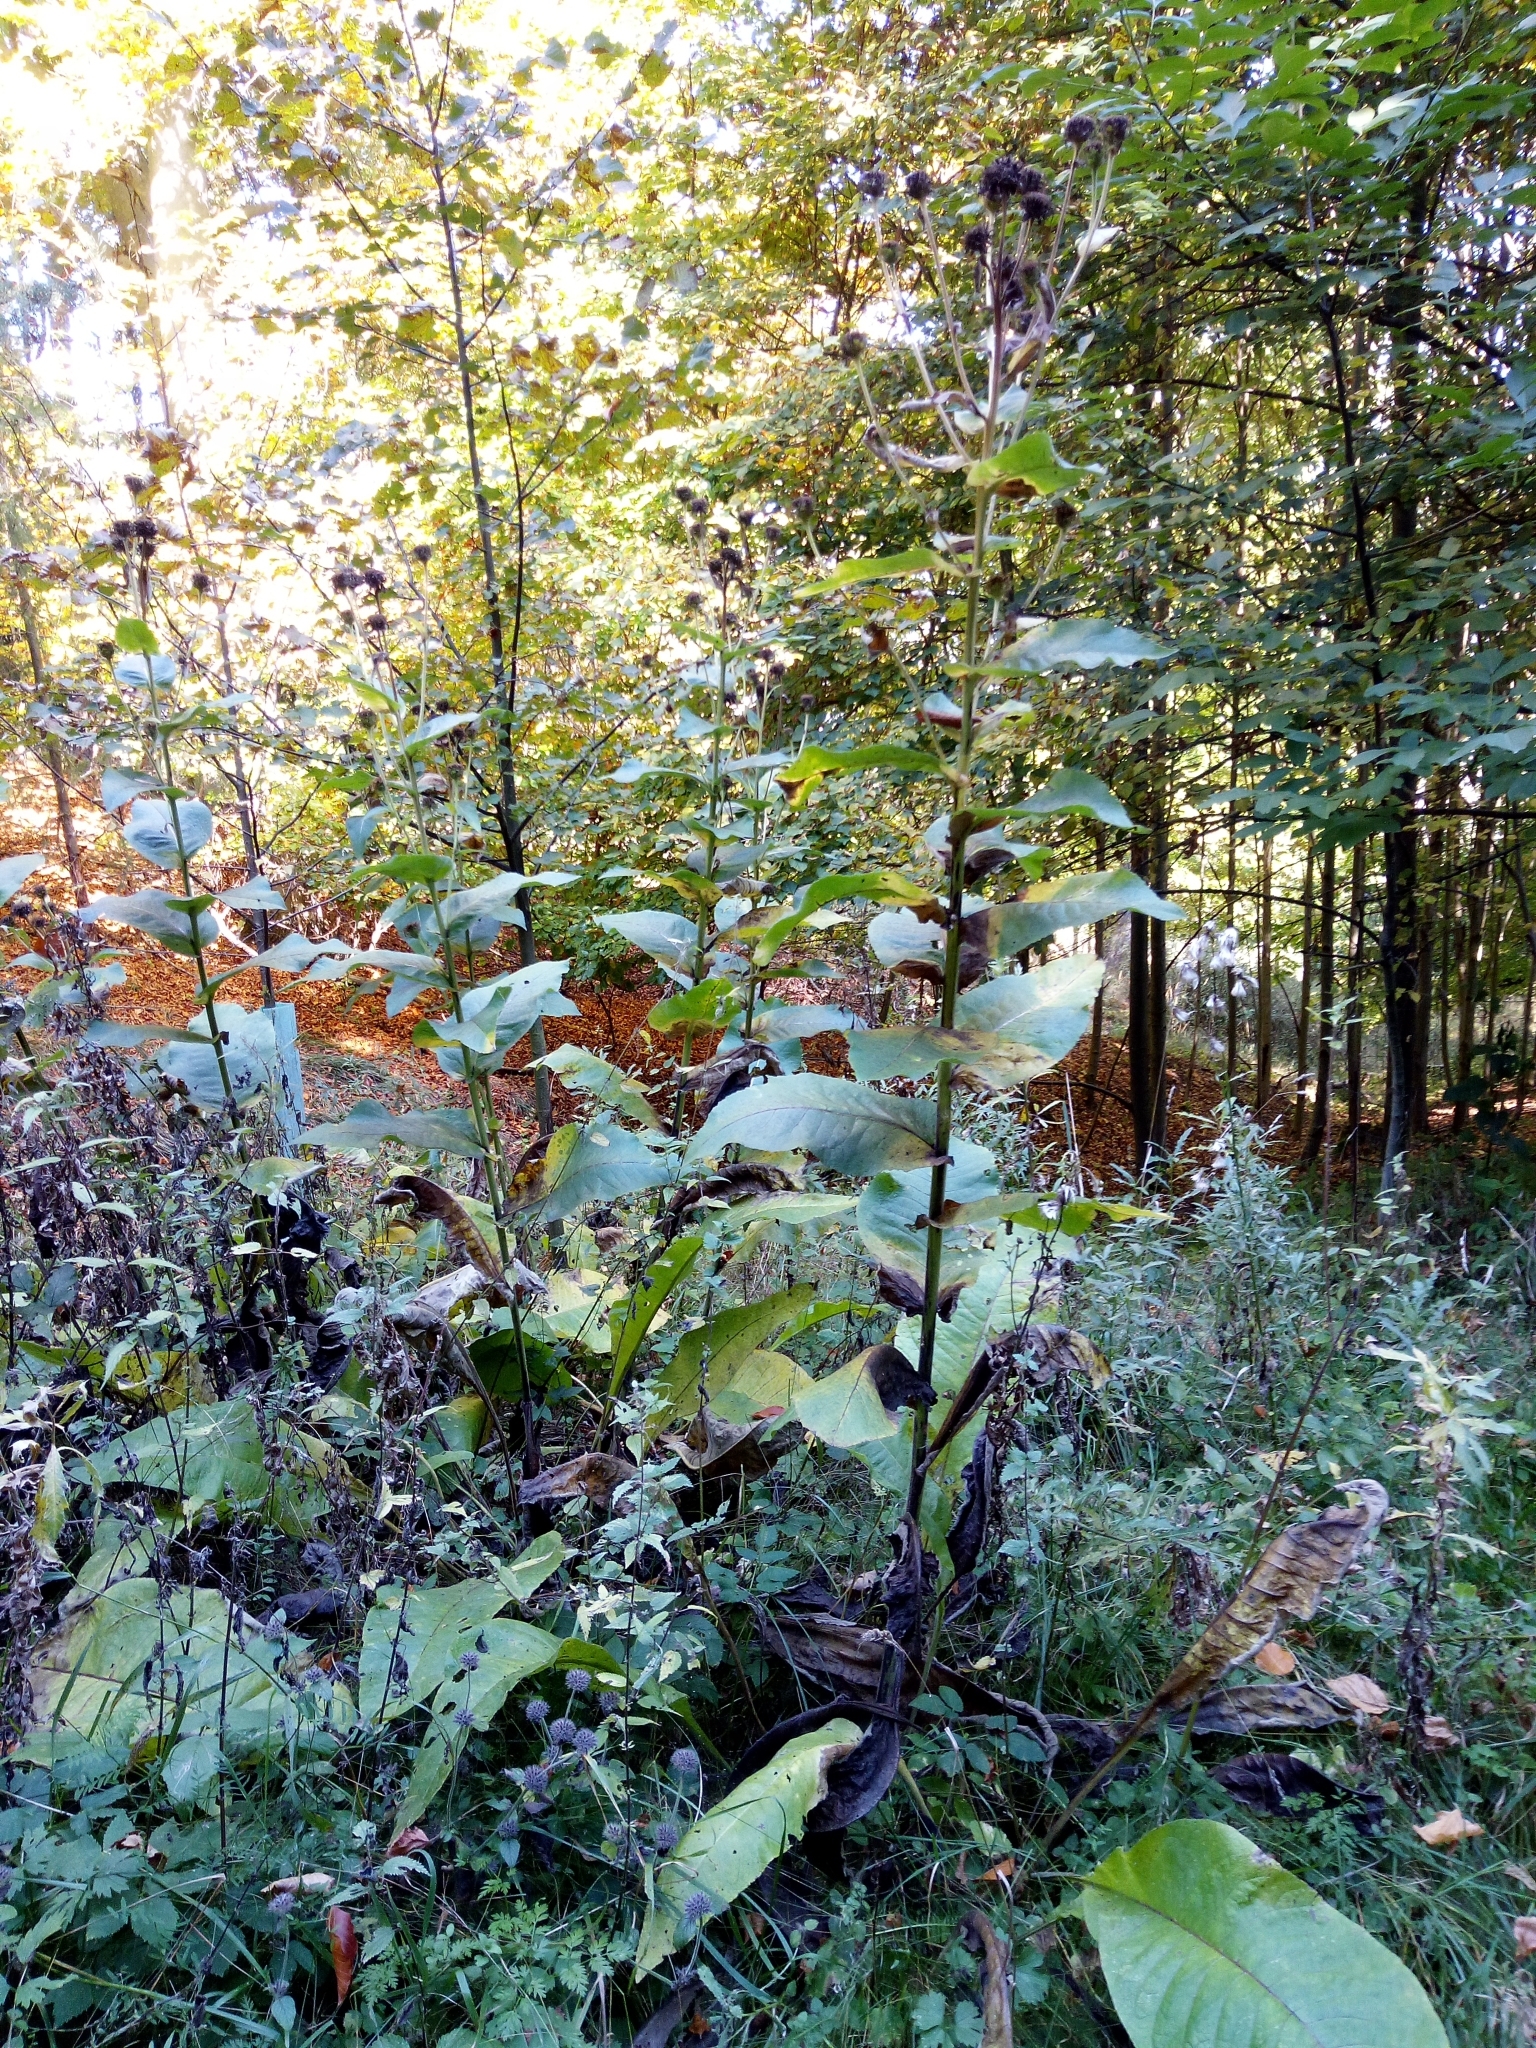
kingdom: Plantae
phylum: Tracheophyta
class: Magnoliopsida
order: Asterales
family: Asteraceae
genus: Inula
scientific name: Inula helenium
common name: Elecampane
